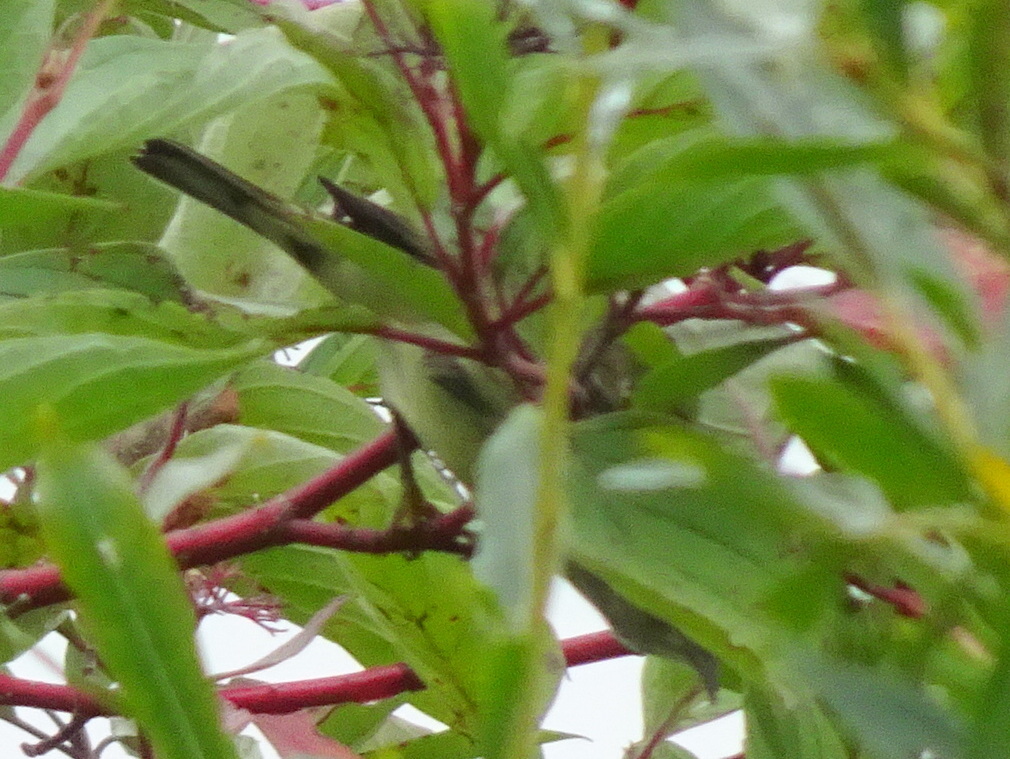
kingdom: Animalia
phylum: Chordata
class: Aves
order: Passeriformes
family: Parulidae
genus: Setophaga
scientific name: Setophaga tigrina
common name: Cape may warbler
